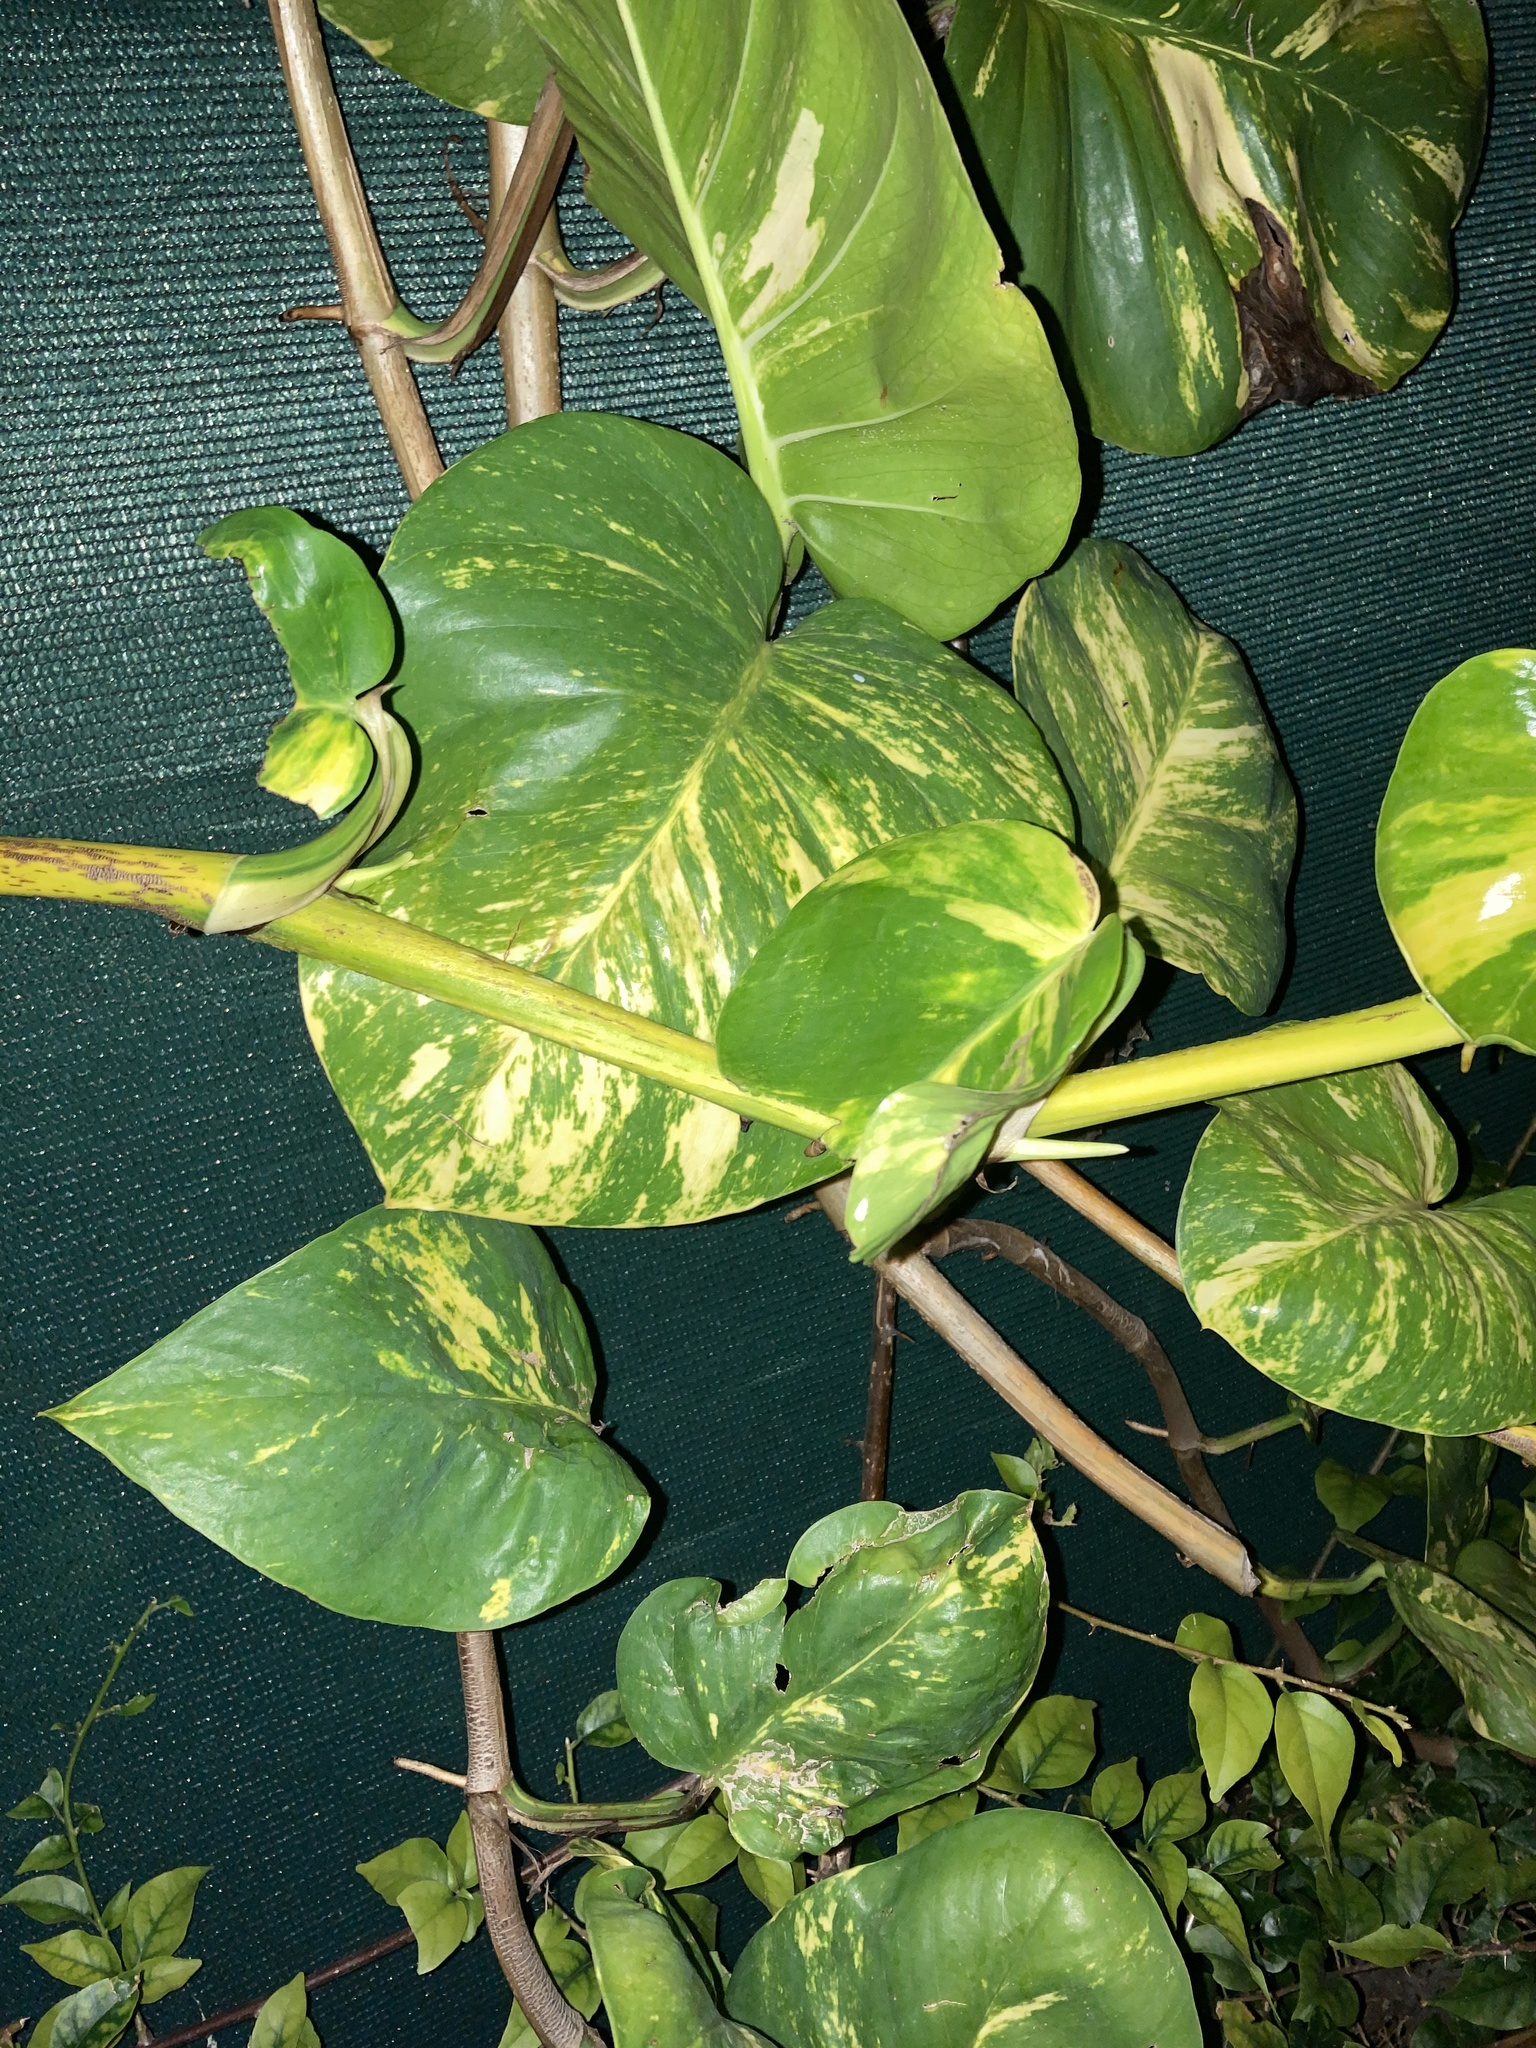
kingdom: Plantae
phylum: Tracheophyta
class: Liliopsida
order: Alismatales
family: Araceae
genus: Epipremnum
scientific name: Epipremnum aureum
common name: Golden hunter's-robe
